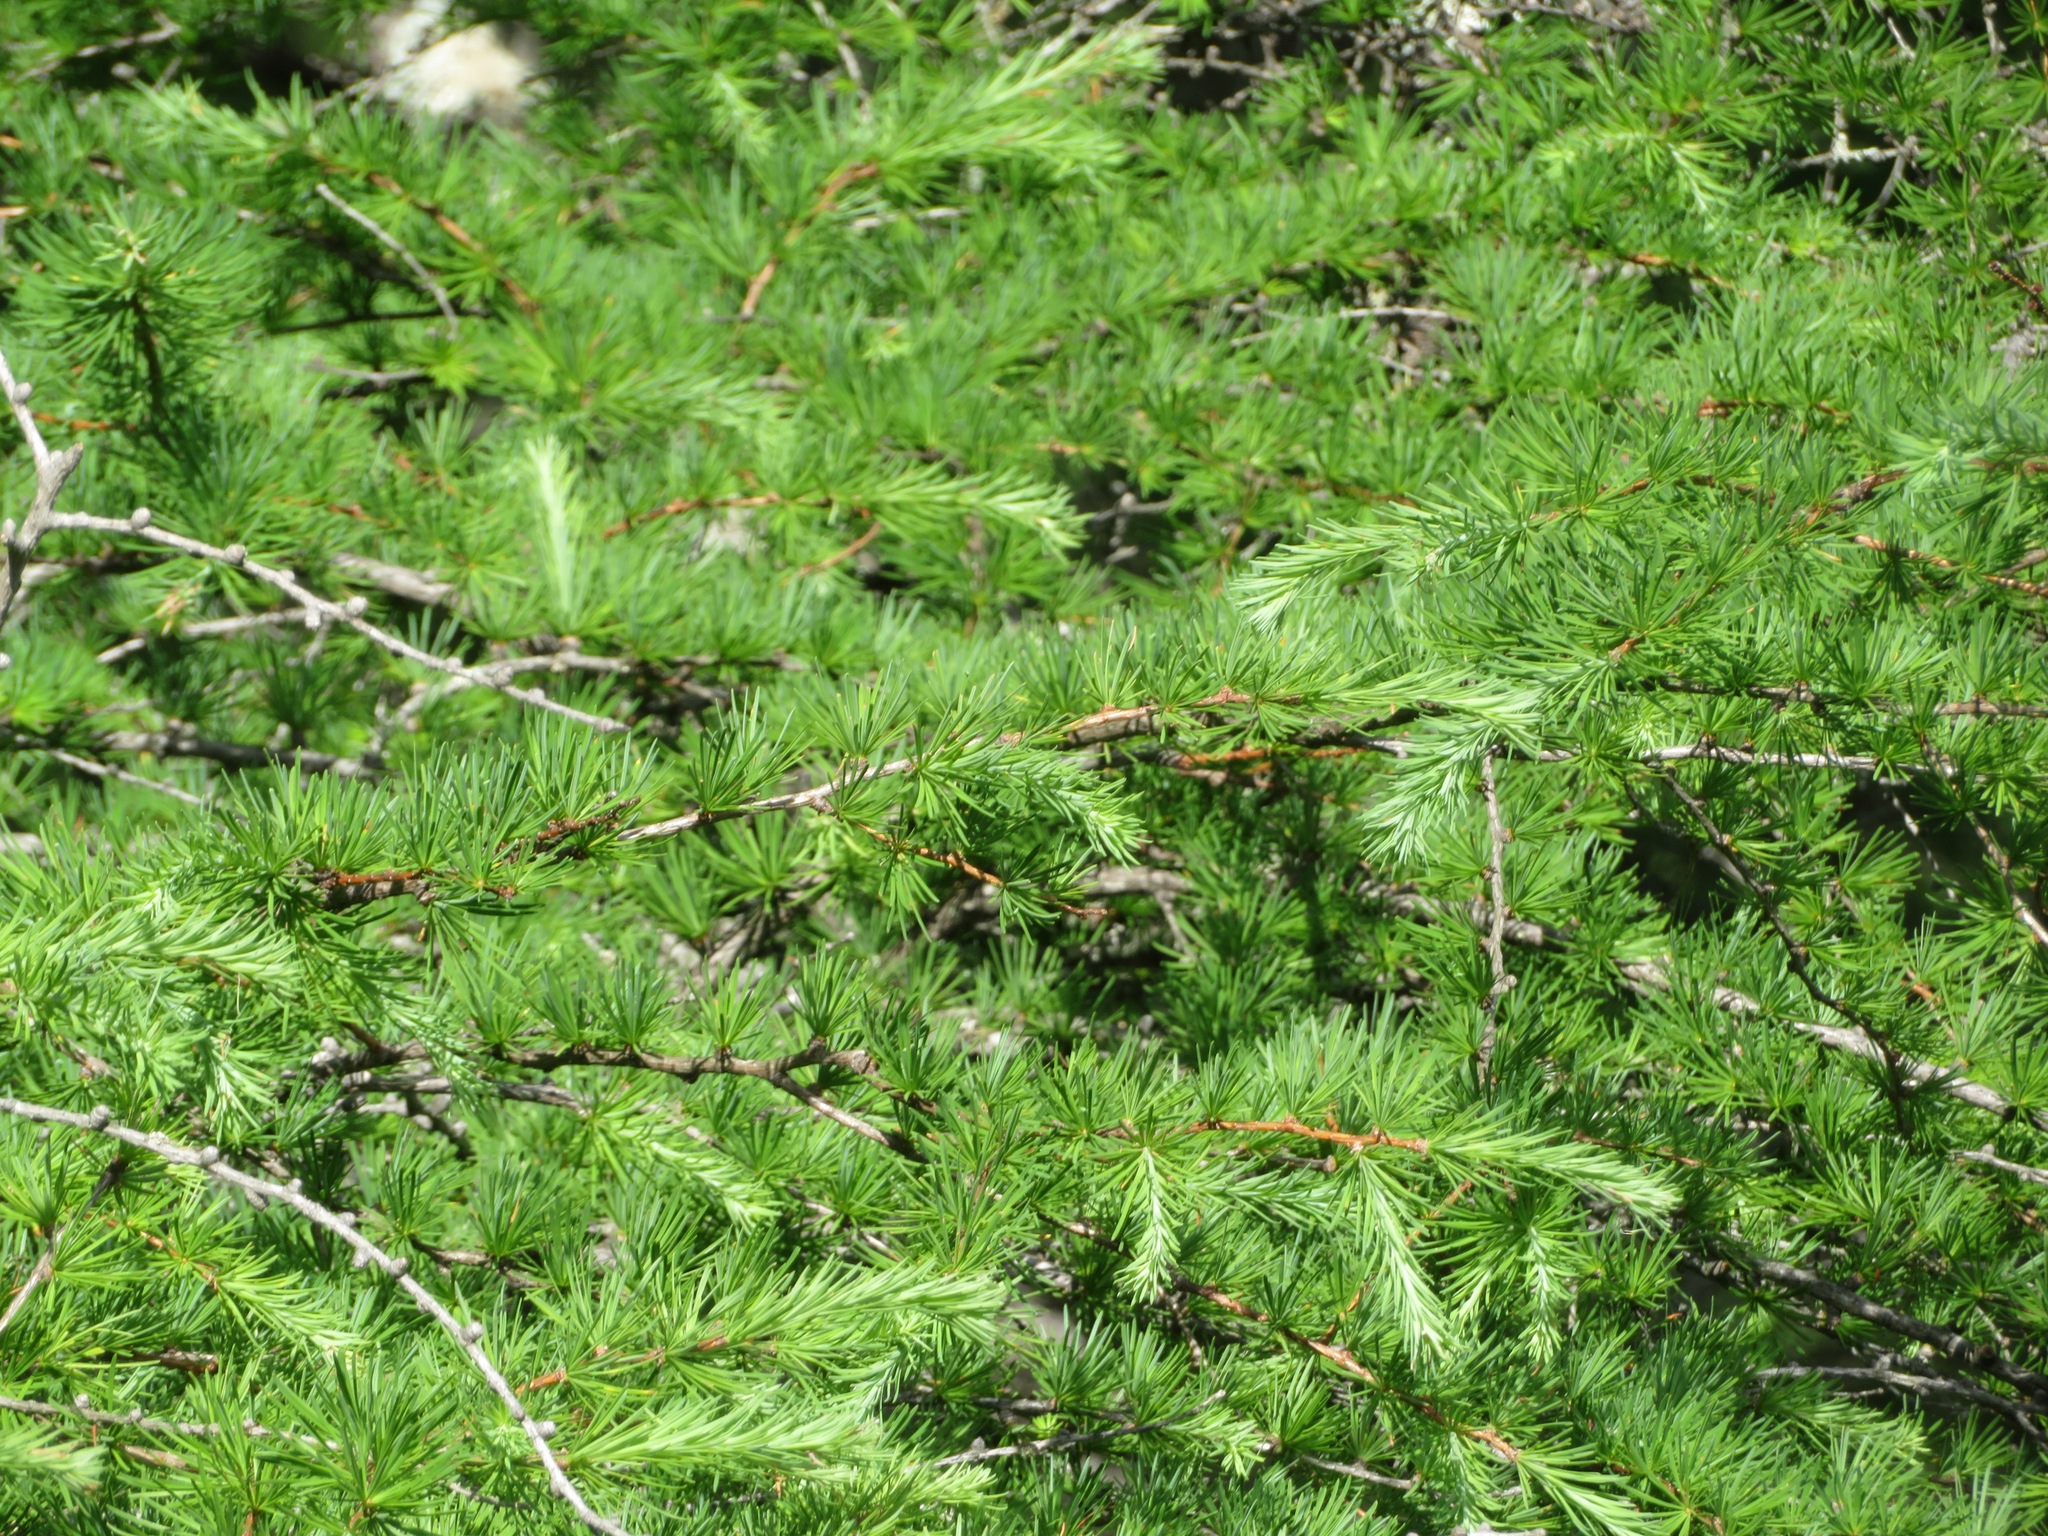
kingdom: Plantae
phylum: Tracheophyta
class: Pinopsida
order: Pinales
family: Pinaceae
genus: Larix
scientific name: Larix kaempferi
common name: Japanese larch
